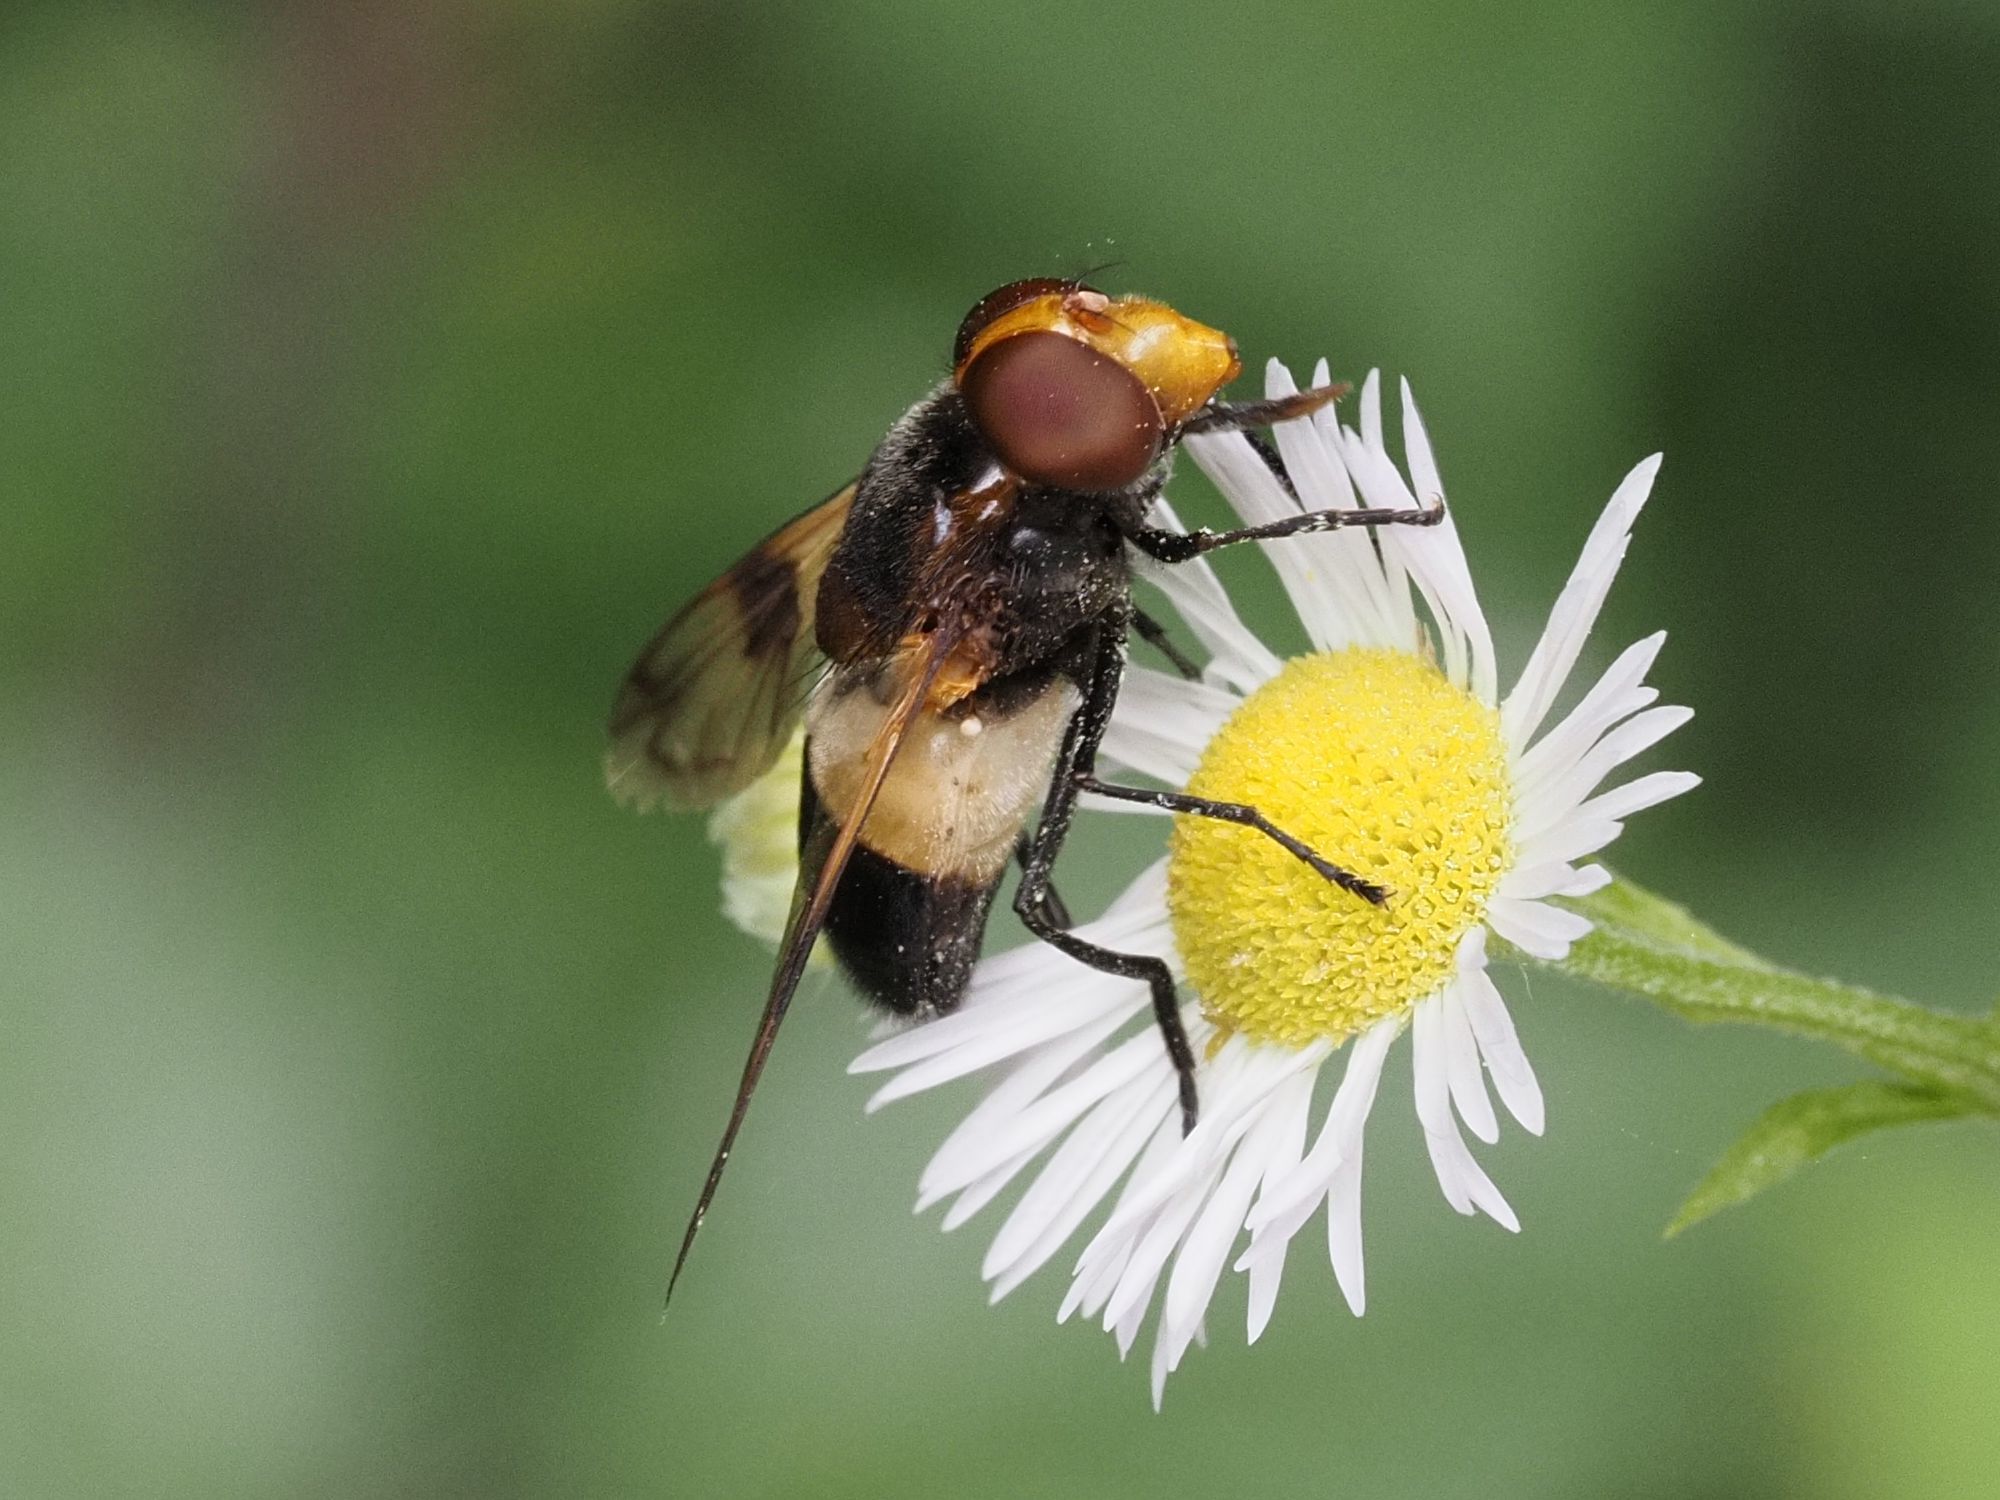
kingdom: Animalia
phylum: Arthropoda
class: Insecta
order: Diptera
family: Syrphidae
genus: Volucella
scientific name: Volucella pellucens
